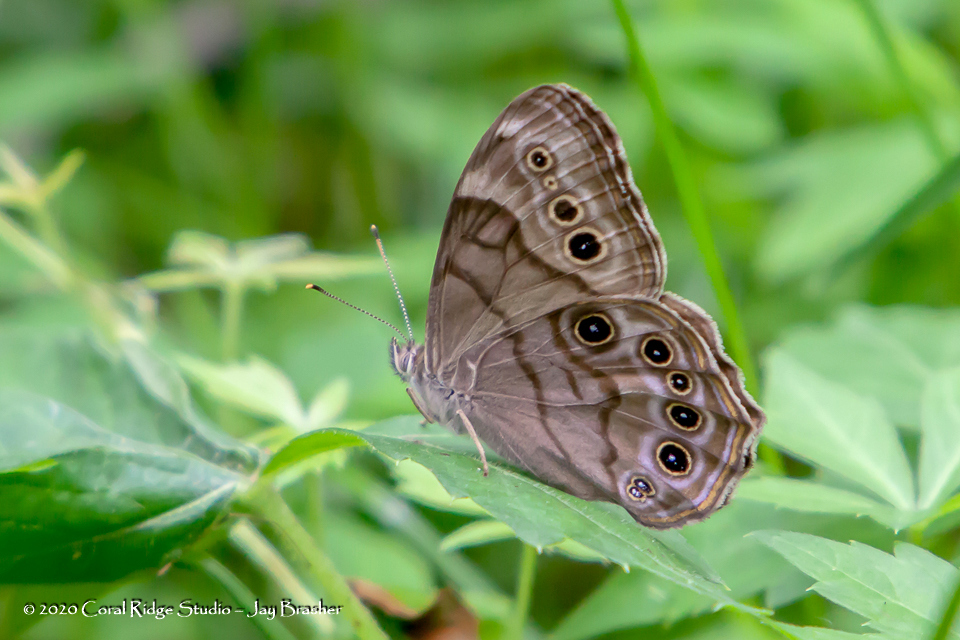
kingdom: Animalia
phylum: Arthropoda
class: Insecta
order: Lepidoptera
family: Nymphalidae
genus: Lethe
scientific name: Lethe anthedon
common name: Northern pearly-eye
